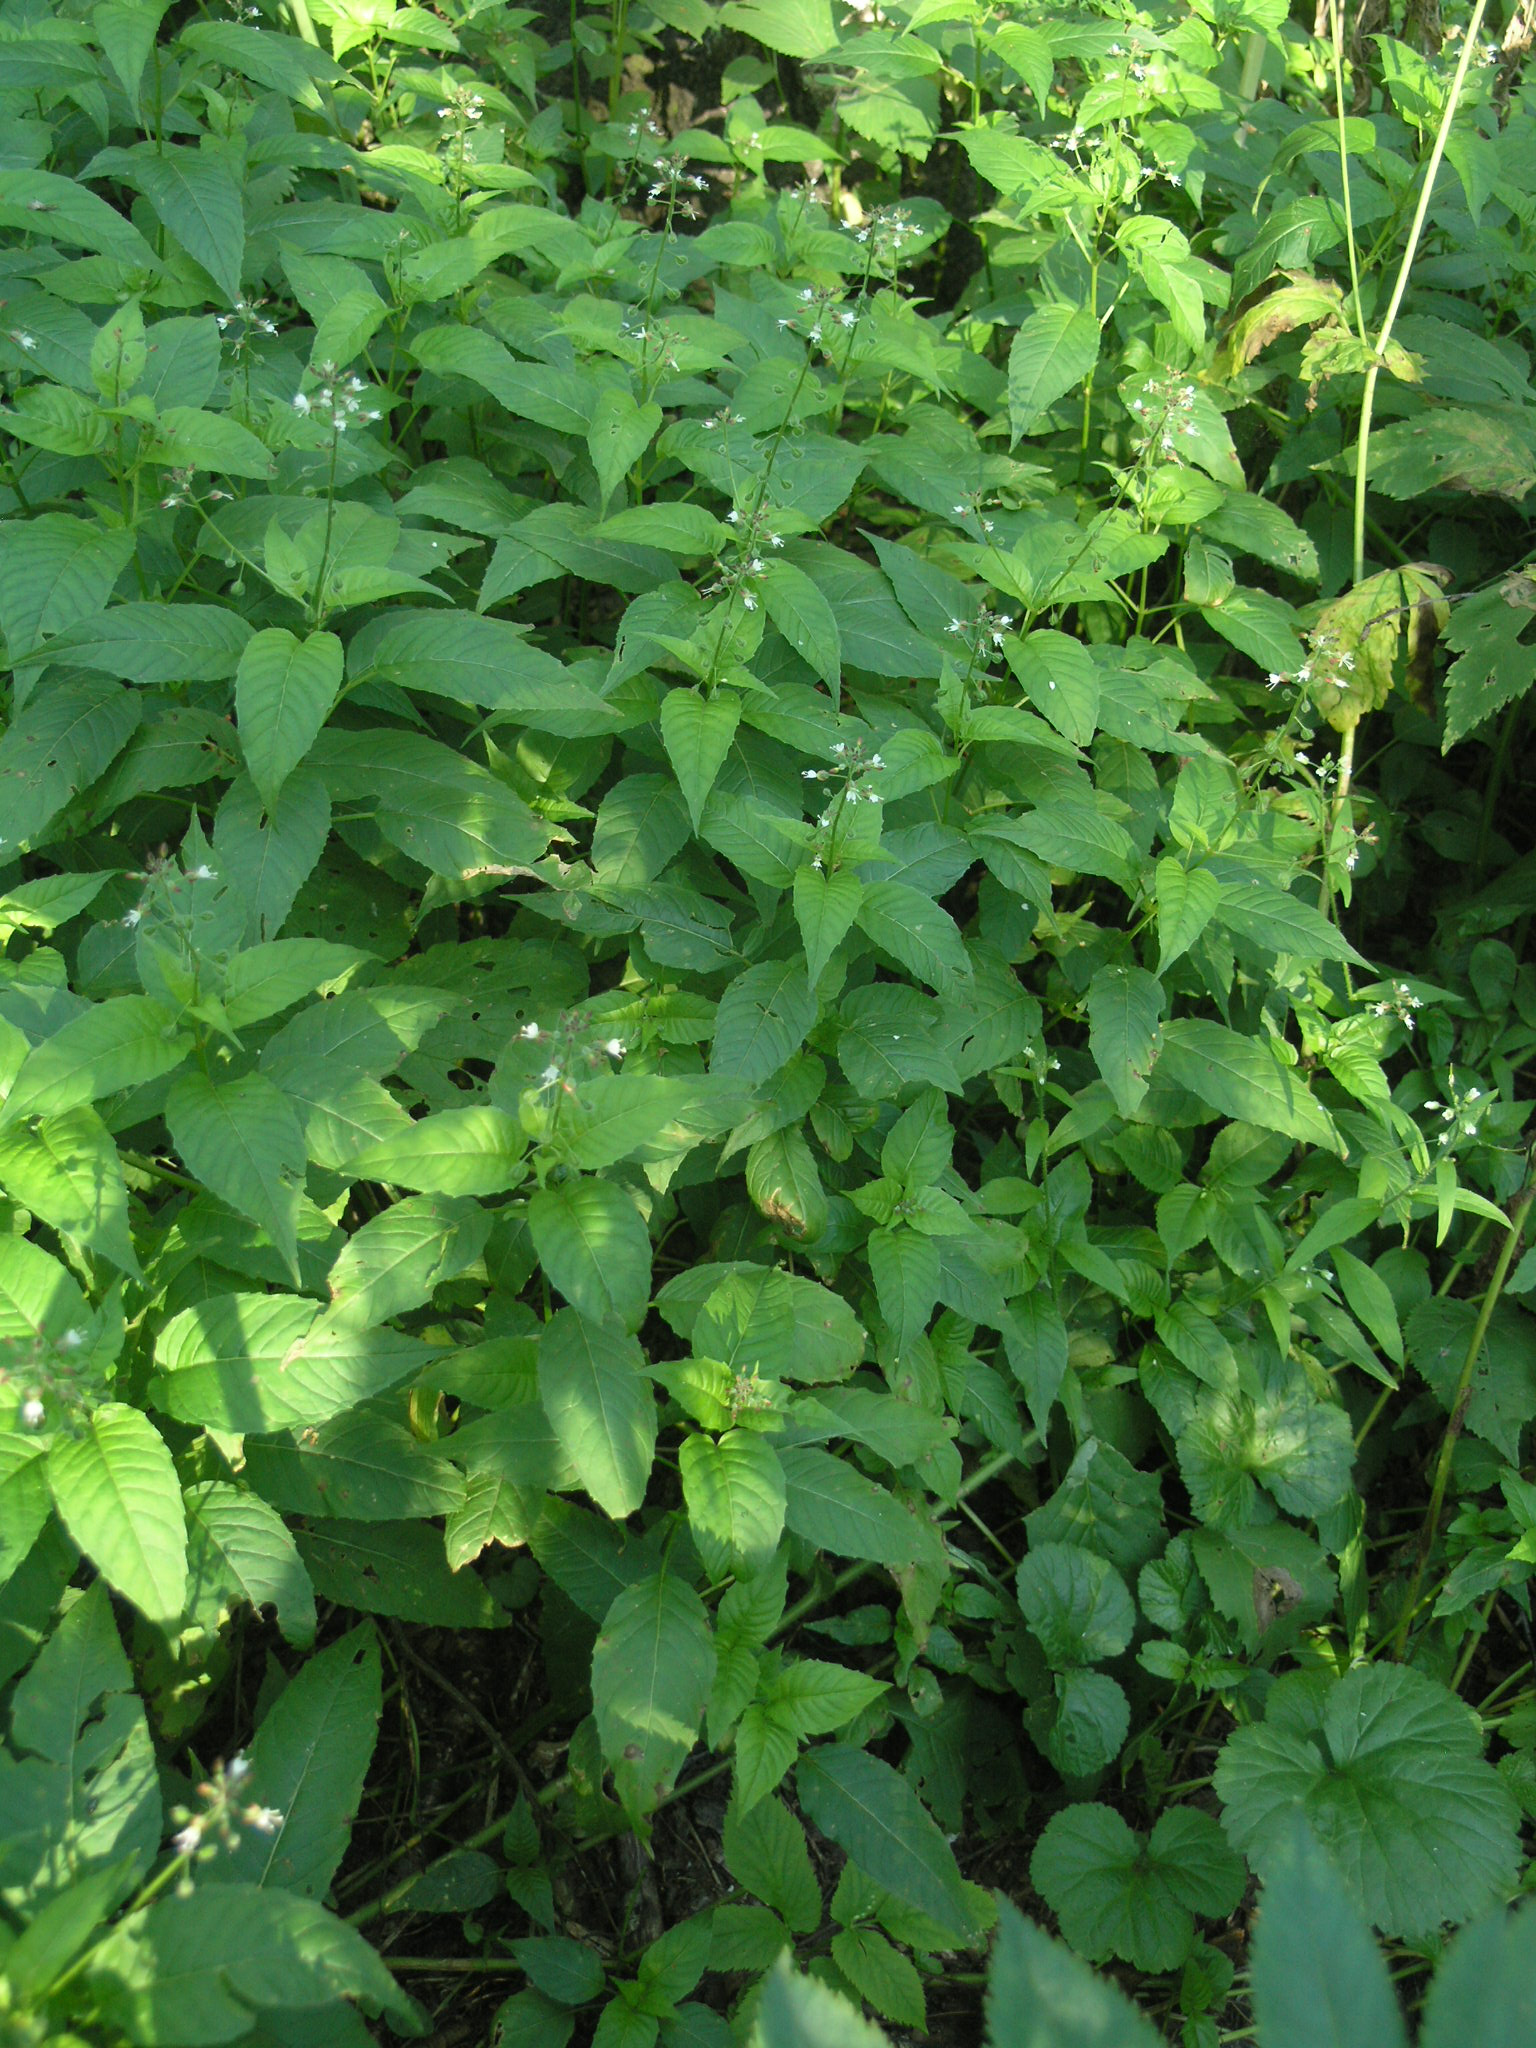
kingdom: Plantae
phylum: Tracheophyta
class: Magnoliopsida
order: Myrtales
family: Onagraceae
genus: Circaea
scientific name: Circaea lutetiana
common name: Enchanter's-nightshade
